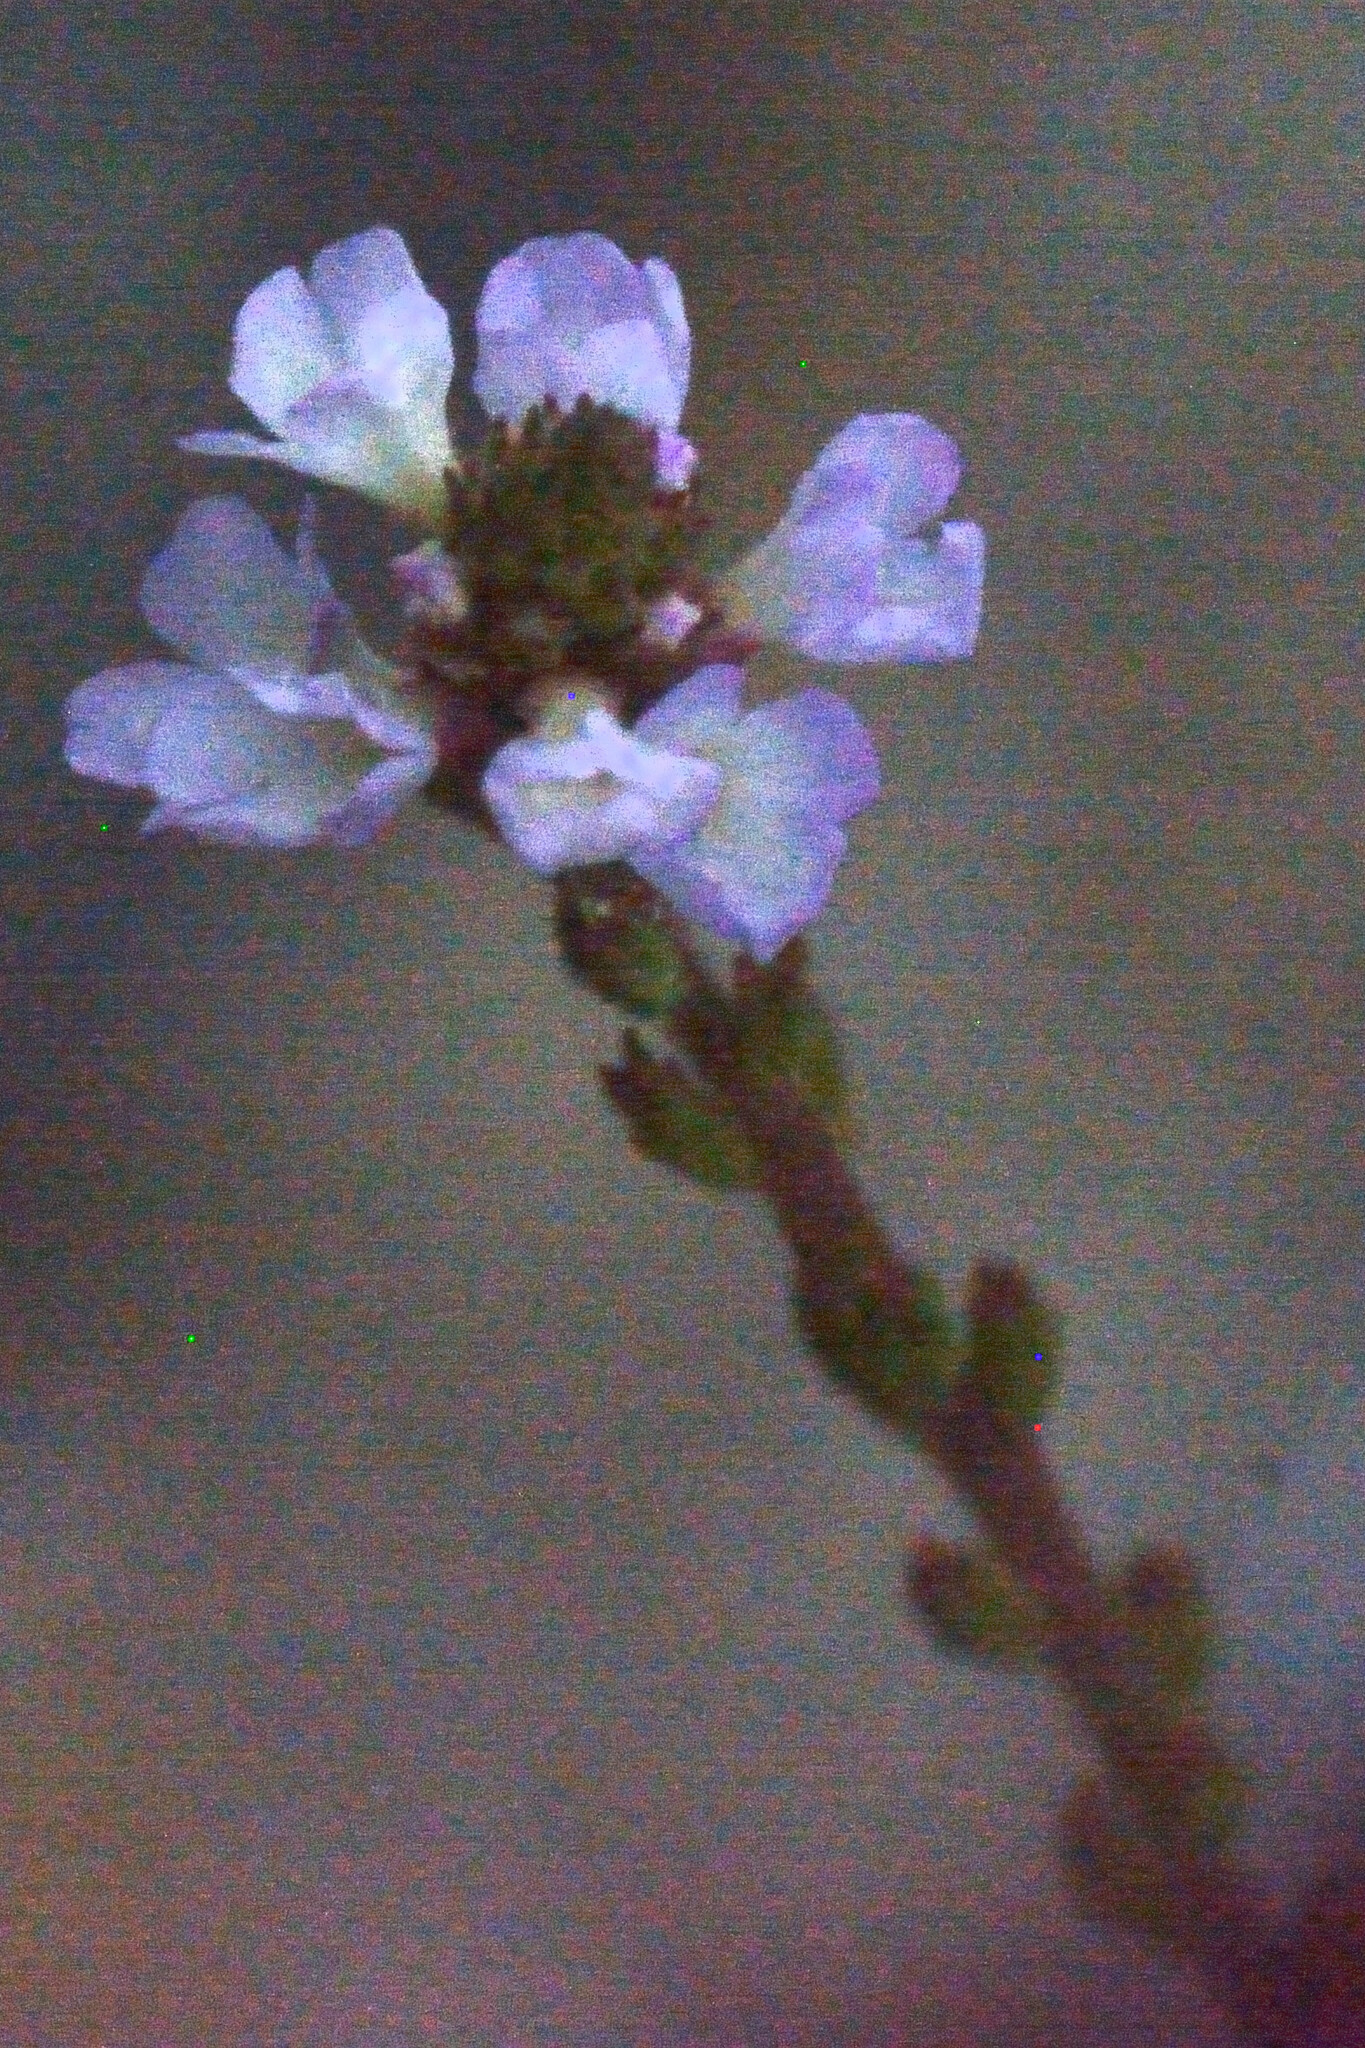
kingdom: Plantae
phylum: Tracheophyta
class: Magnoliopsida
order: Lamiales
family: Verbenaceae
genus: Verbena
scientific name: Verbena officinalis
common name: Vervain
